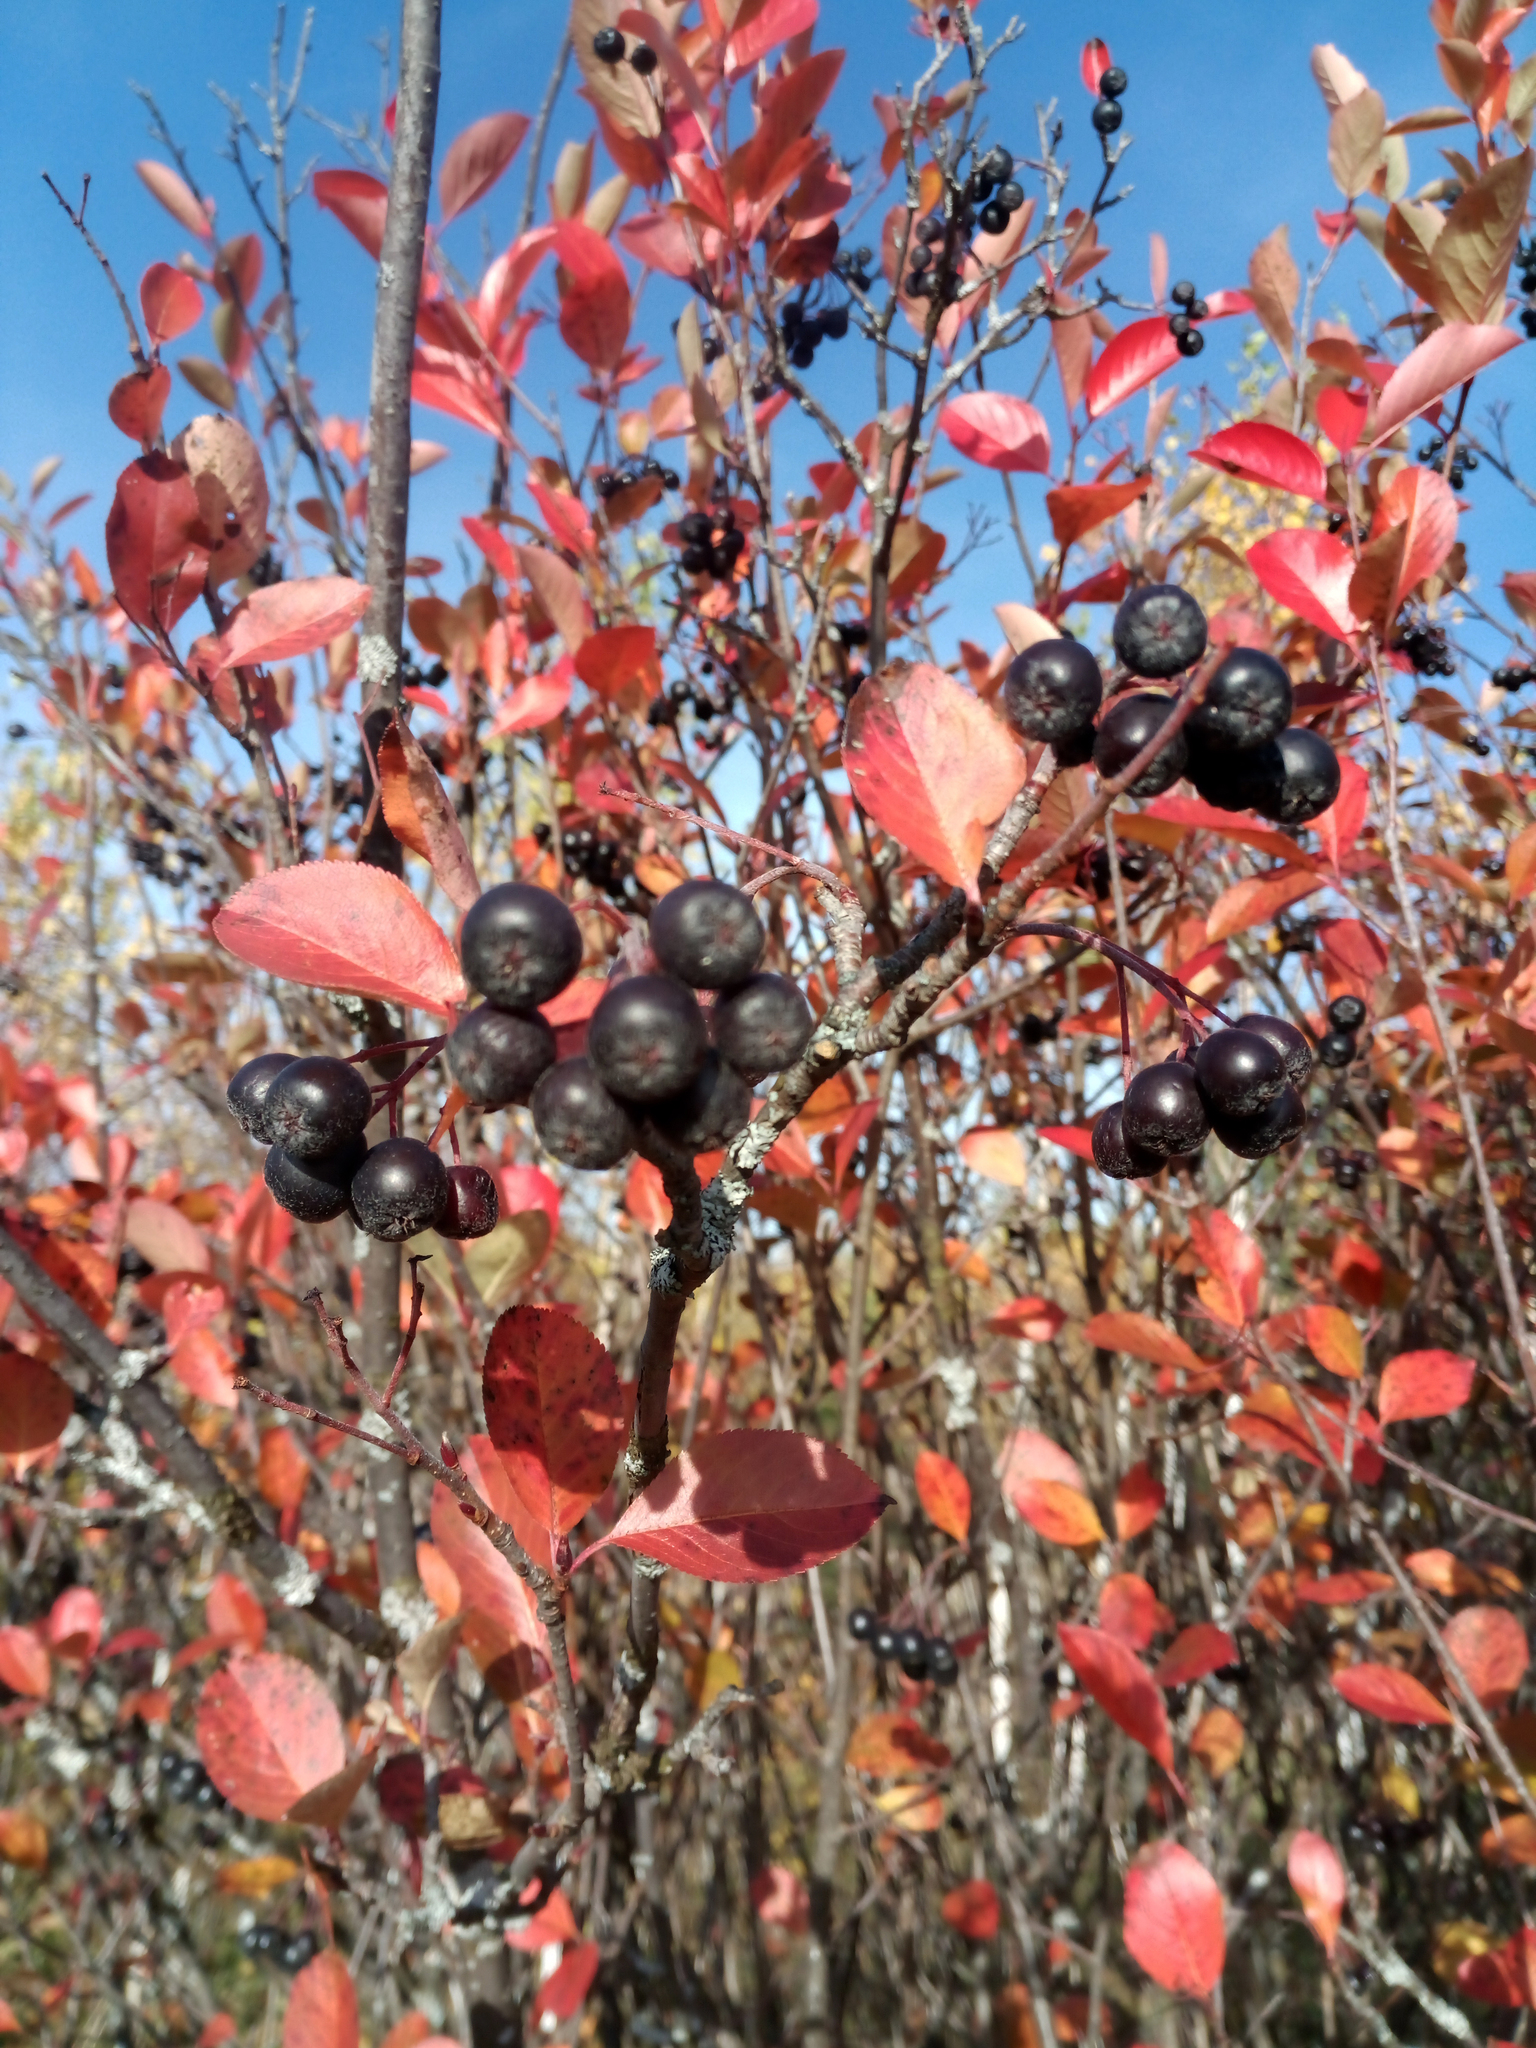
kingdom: Plantae
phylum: Tracheophyta
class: Magnoliopsida
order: Rosales
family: Rosaceae
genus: Sorbaronia
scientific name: Sorbaronia arsenii
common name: Arsène's mountain-ash
